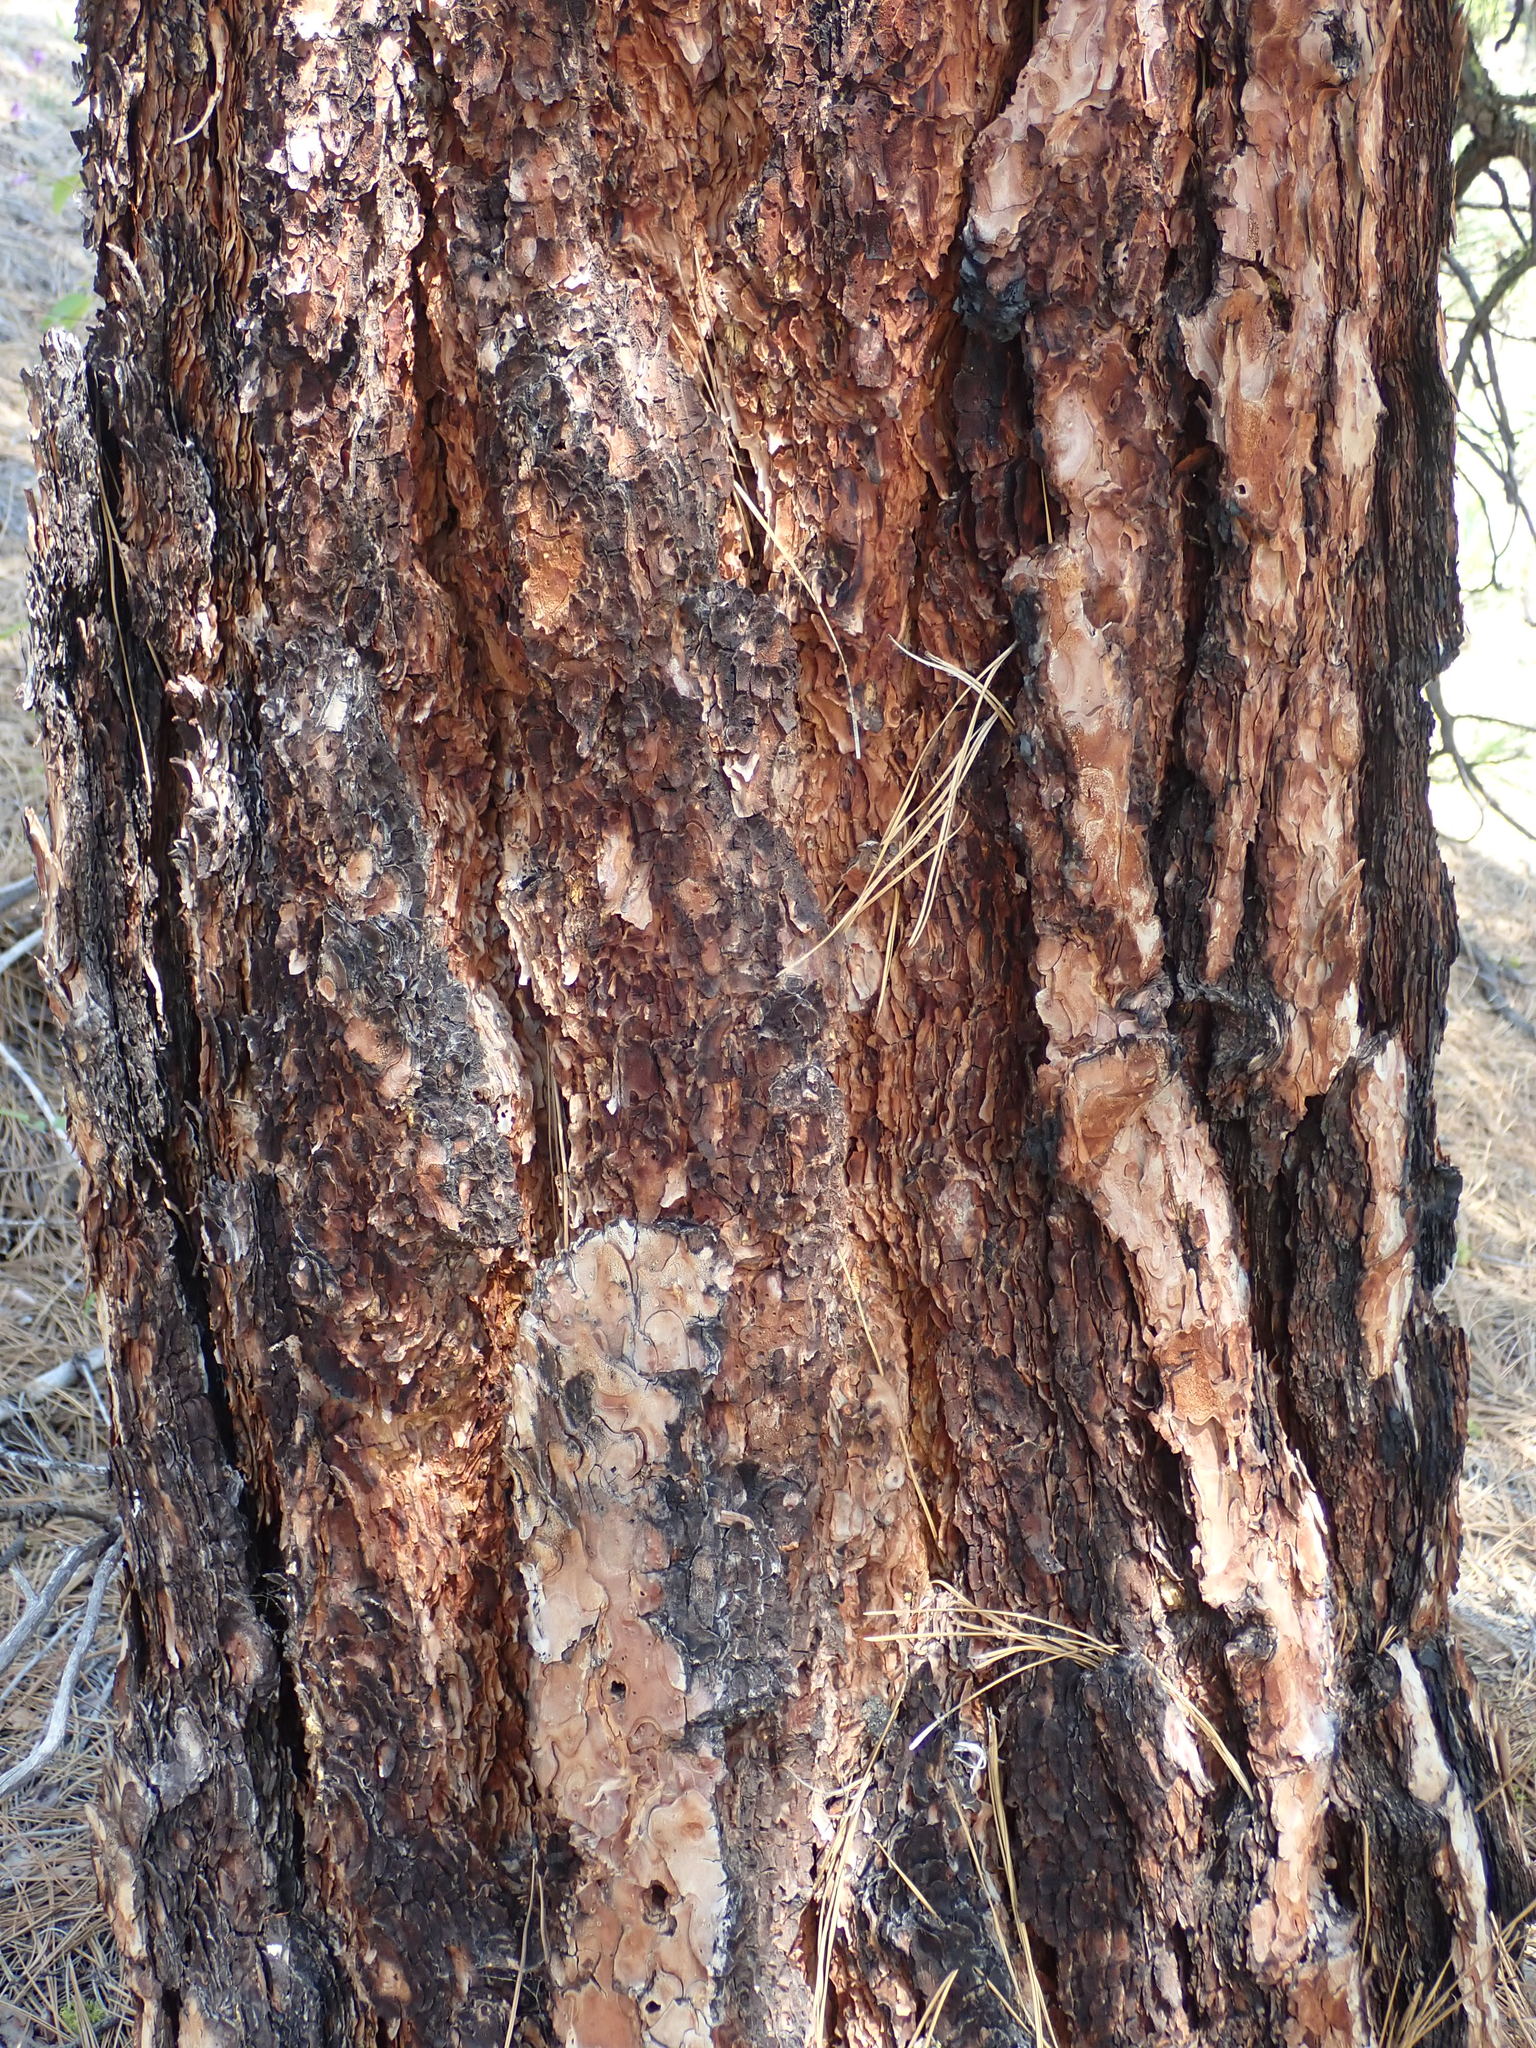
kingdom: Plantae
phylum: Tracheophyta
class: Pinopsida
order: Pinales
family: Pinaceae
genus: Pinus
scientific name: Pinus ponderosa
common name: Western yellow-pine
